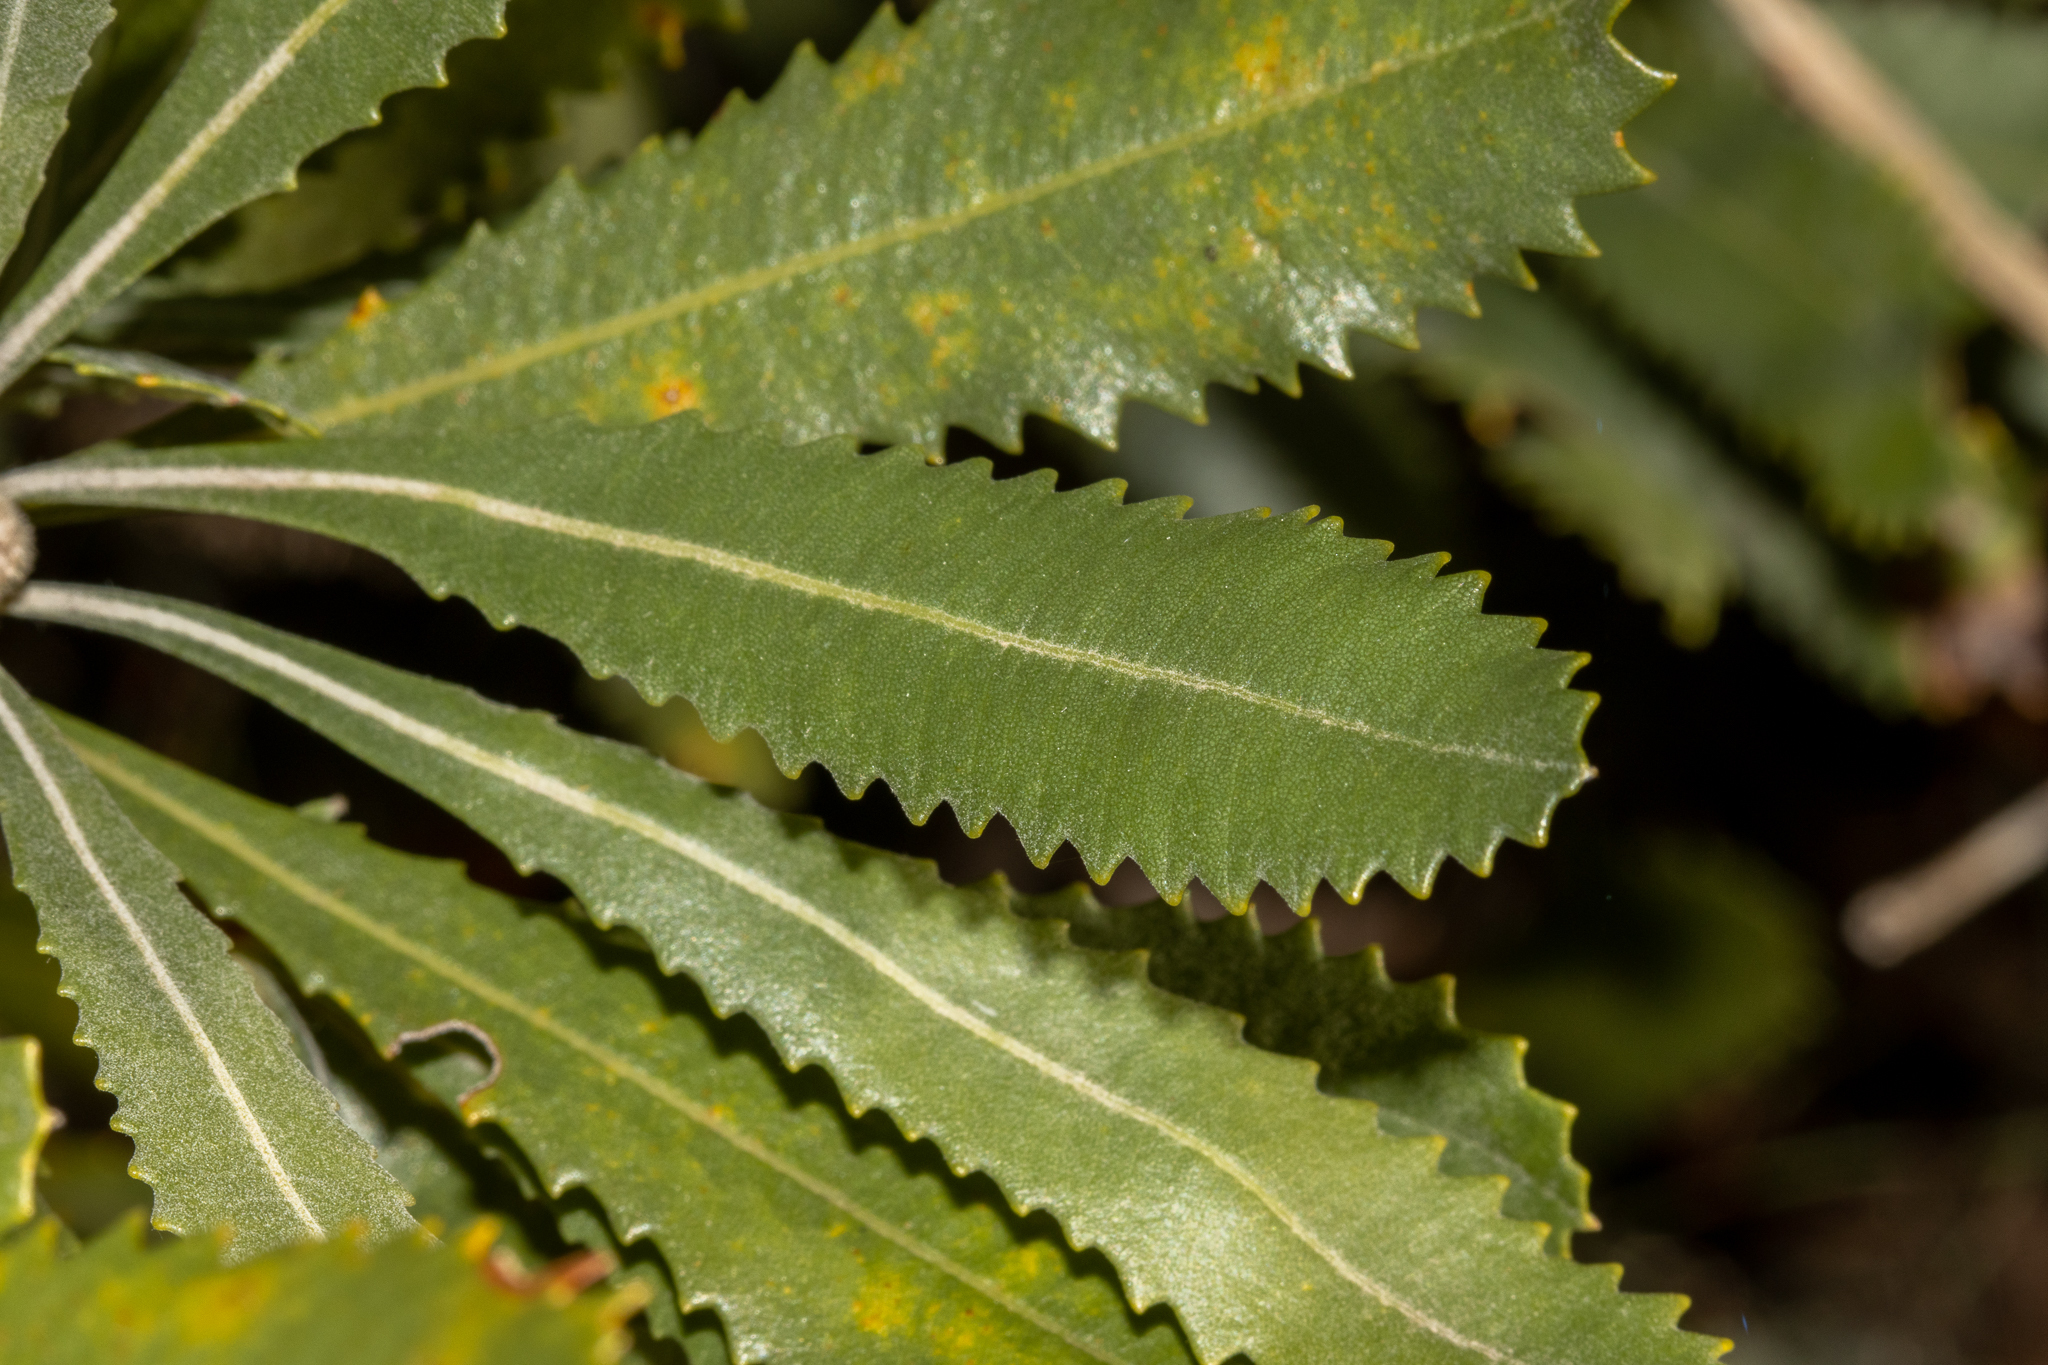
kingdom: Plantae
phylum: Tracheophyta
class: Magnoliopsida
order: Proteales
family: Proteaceae
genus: Banksia
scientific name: Banksia ornata
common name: Desert banksia
